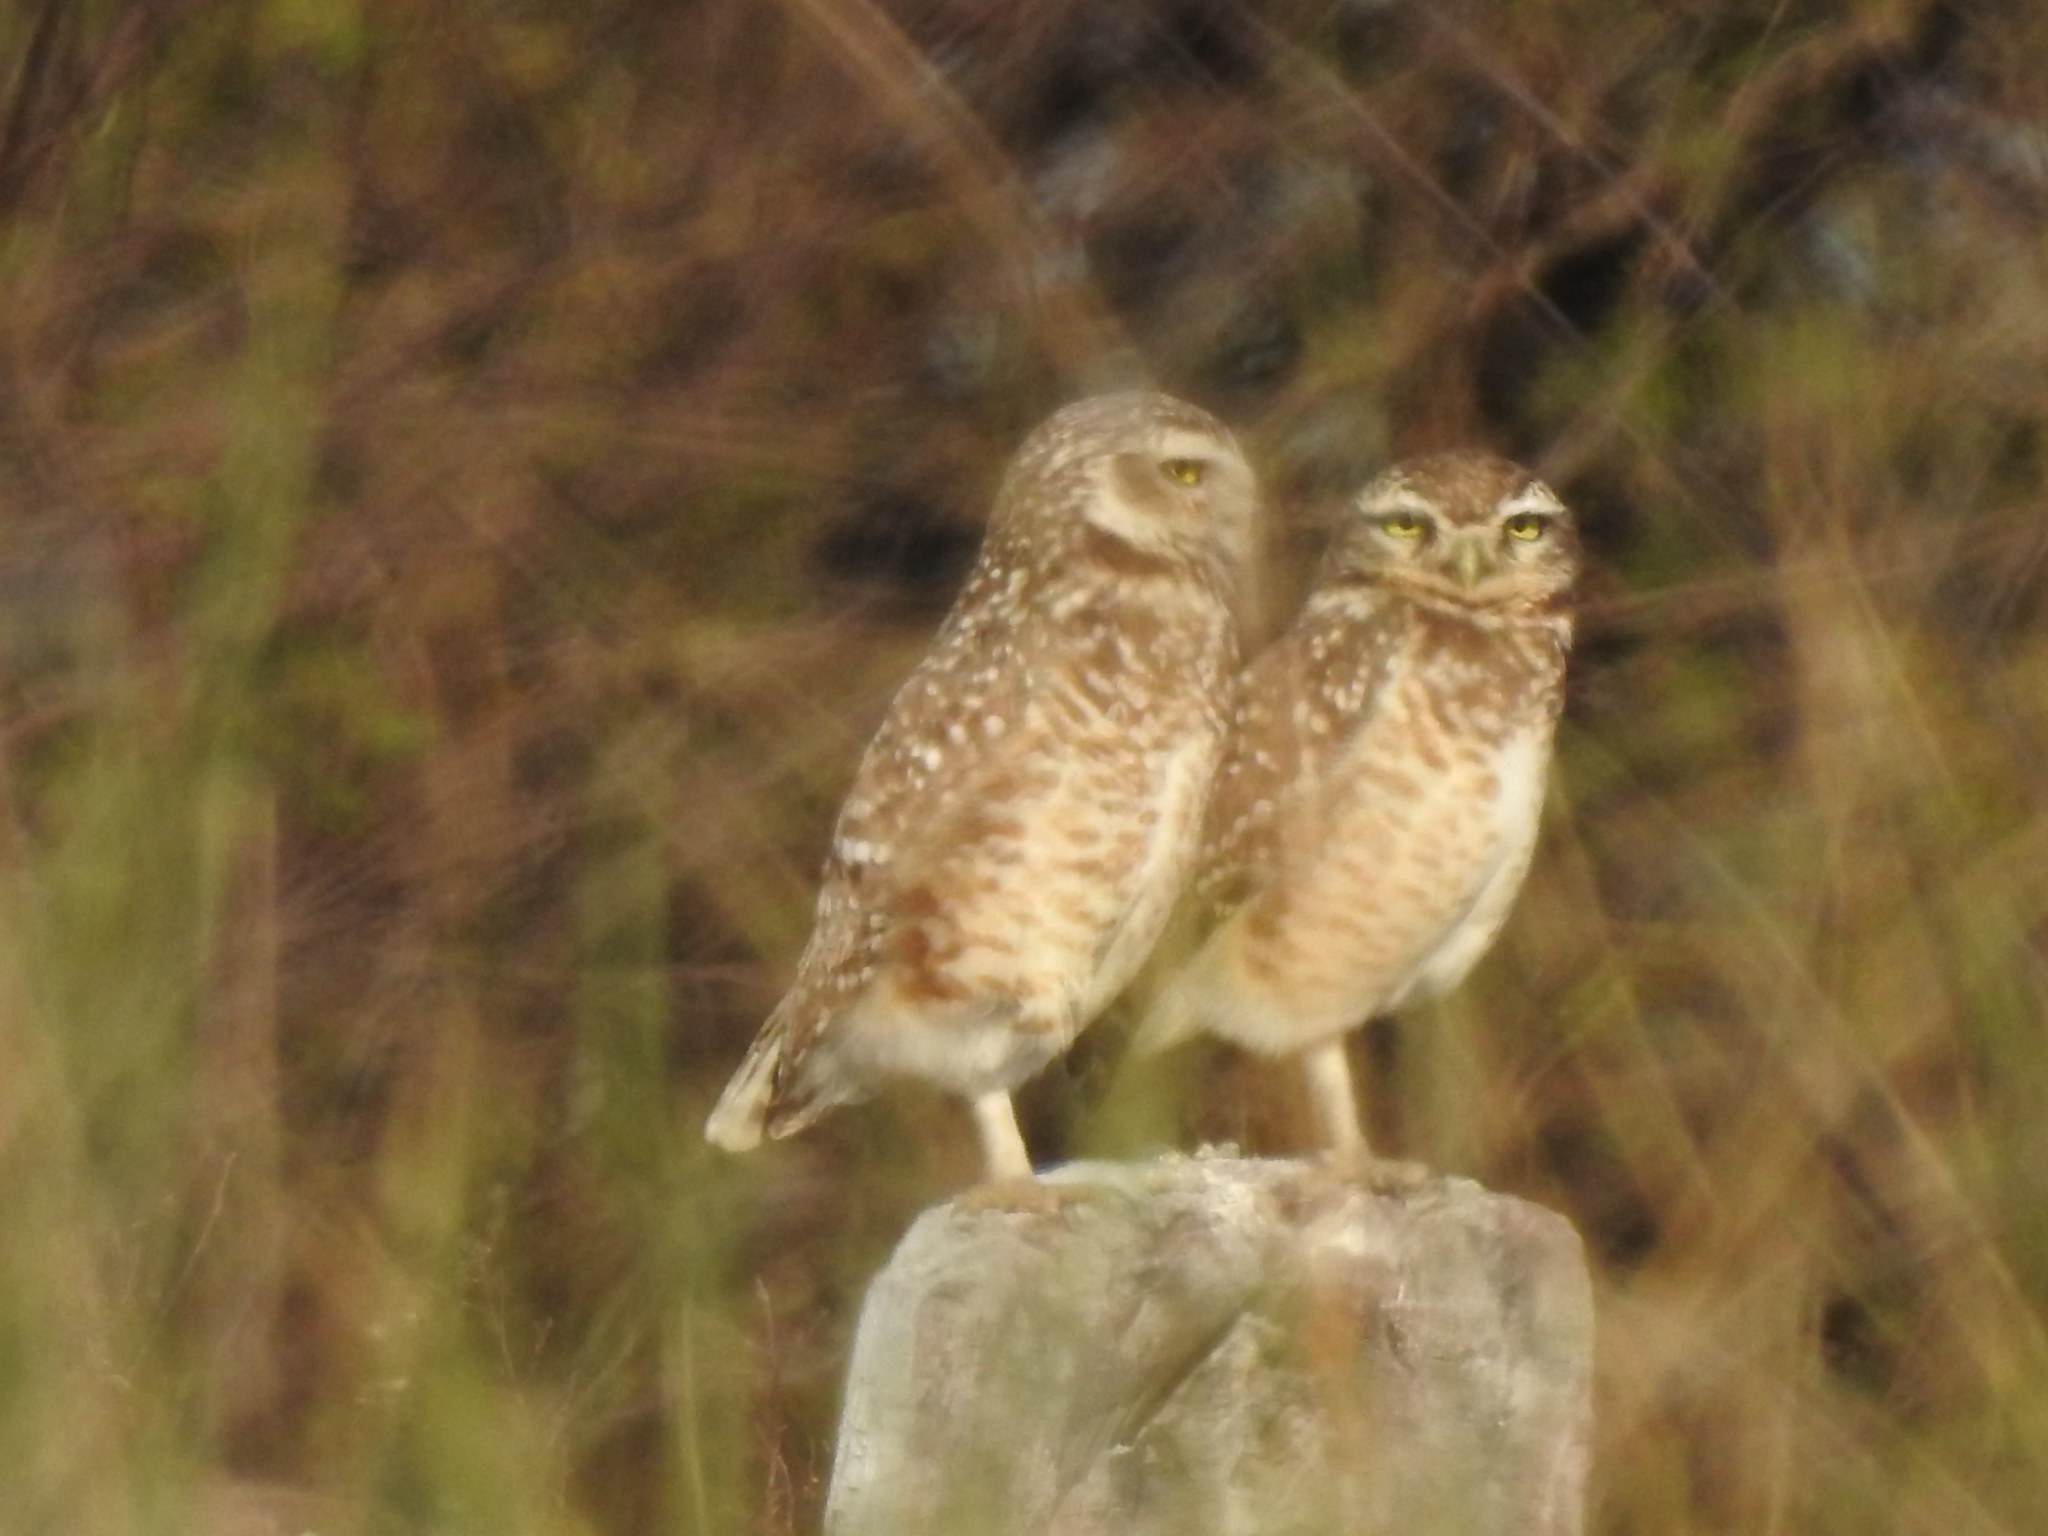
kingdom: Animalia
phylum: Chordata
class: Aves
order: Strigiformes
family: Strigidae
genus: Athene
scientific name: Athene cunicularia
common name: Burrowing owl
